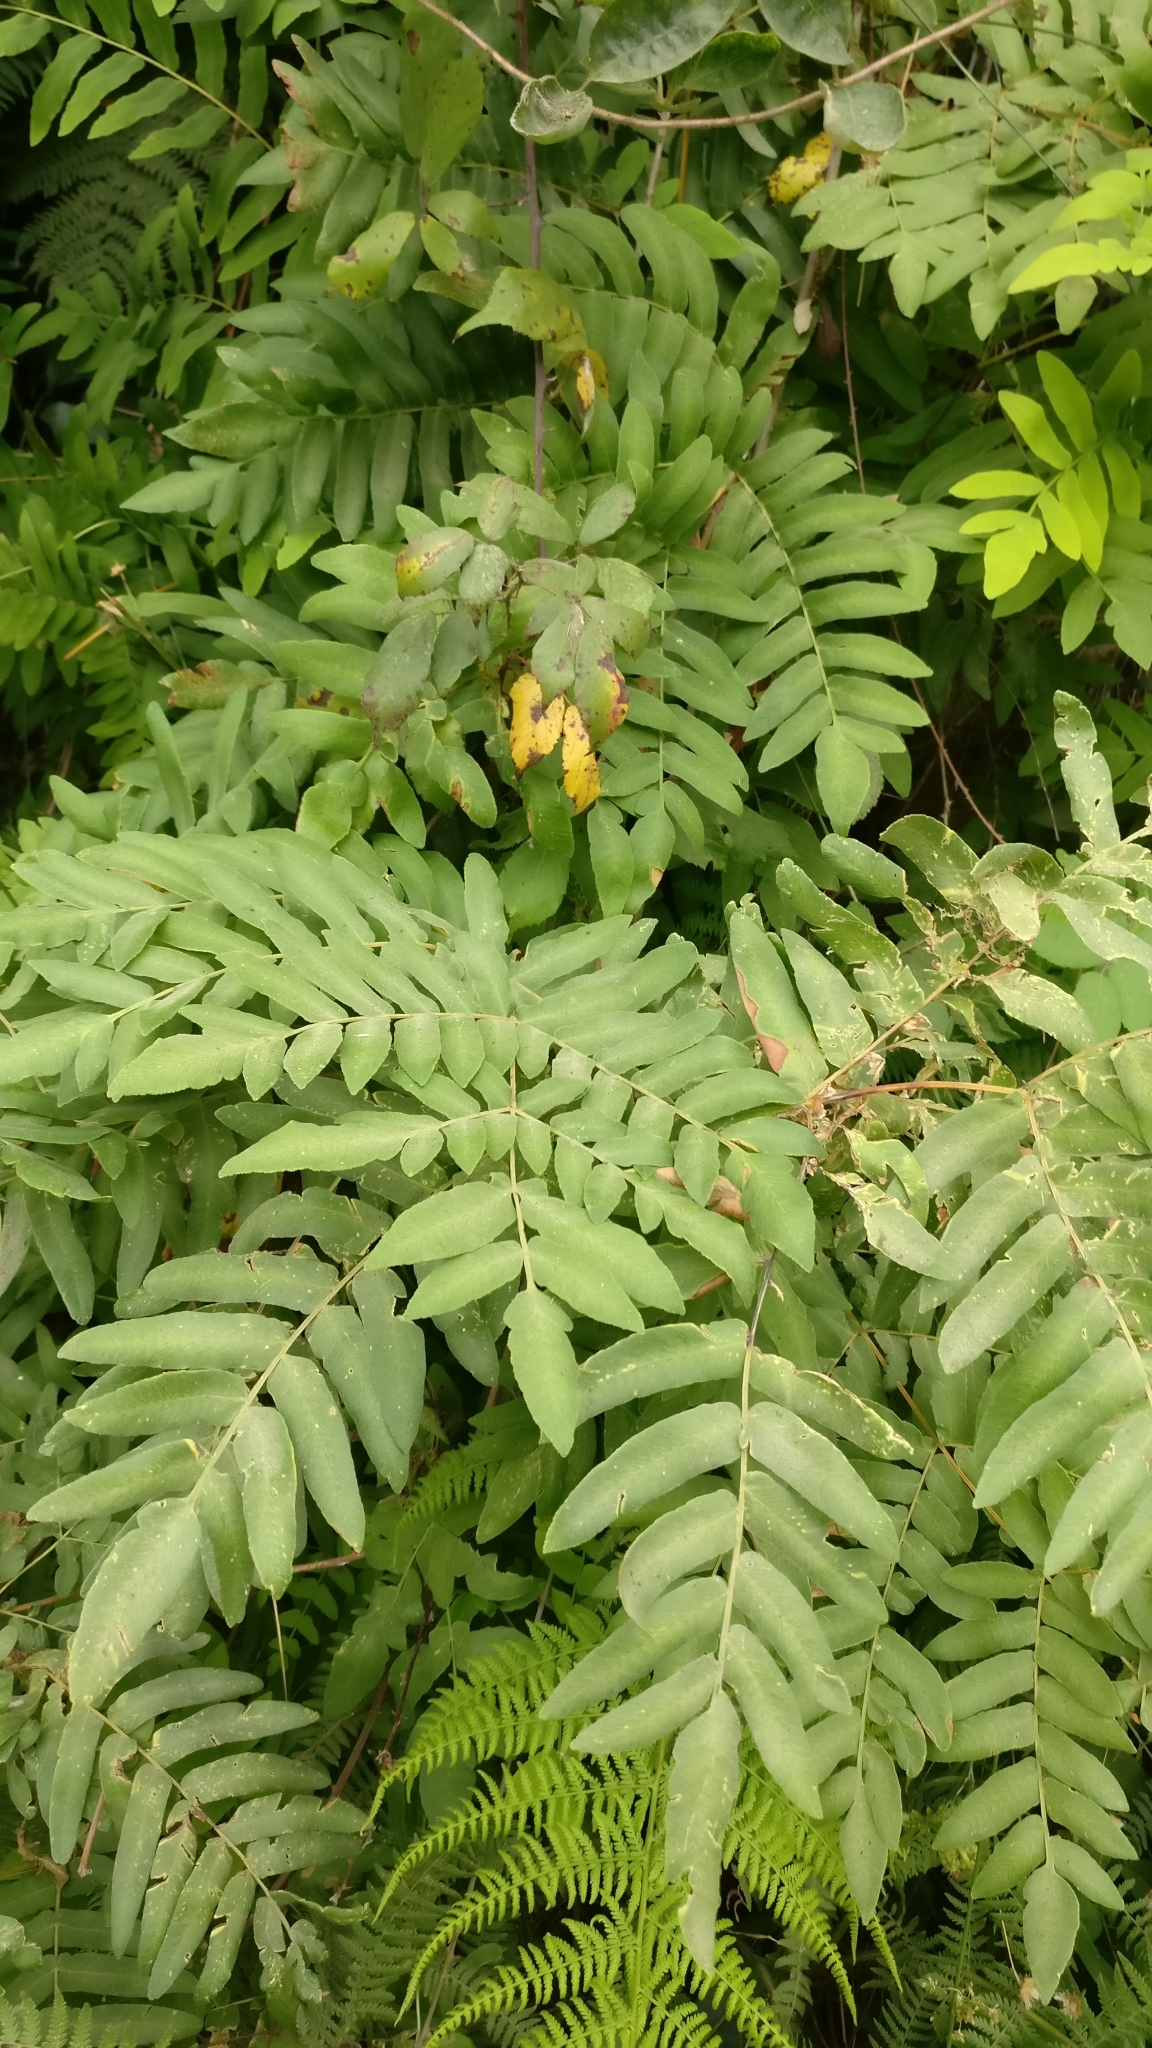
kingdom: Plantae
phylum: Tracheophyta
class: Polypodiopsida
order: Osmundales
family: Osmundaceae
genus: Osmunda
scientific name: Osmunda regalis
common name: Royal fern
